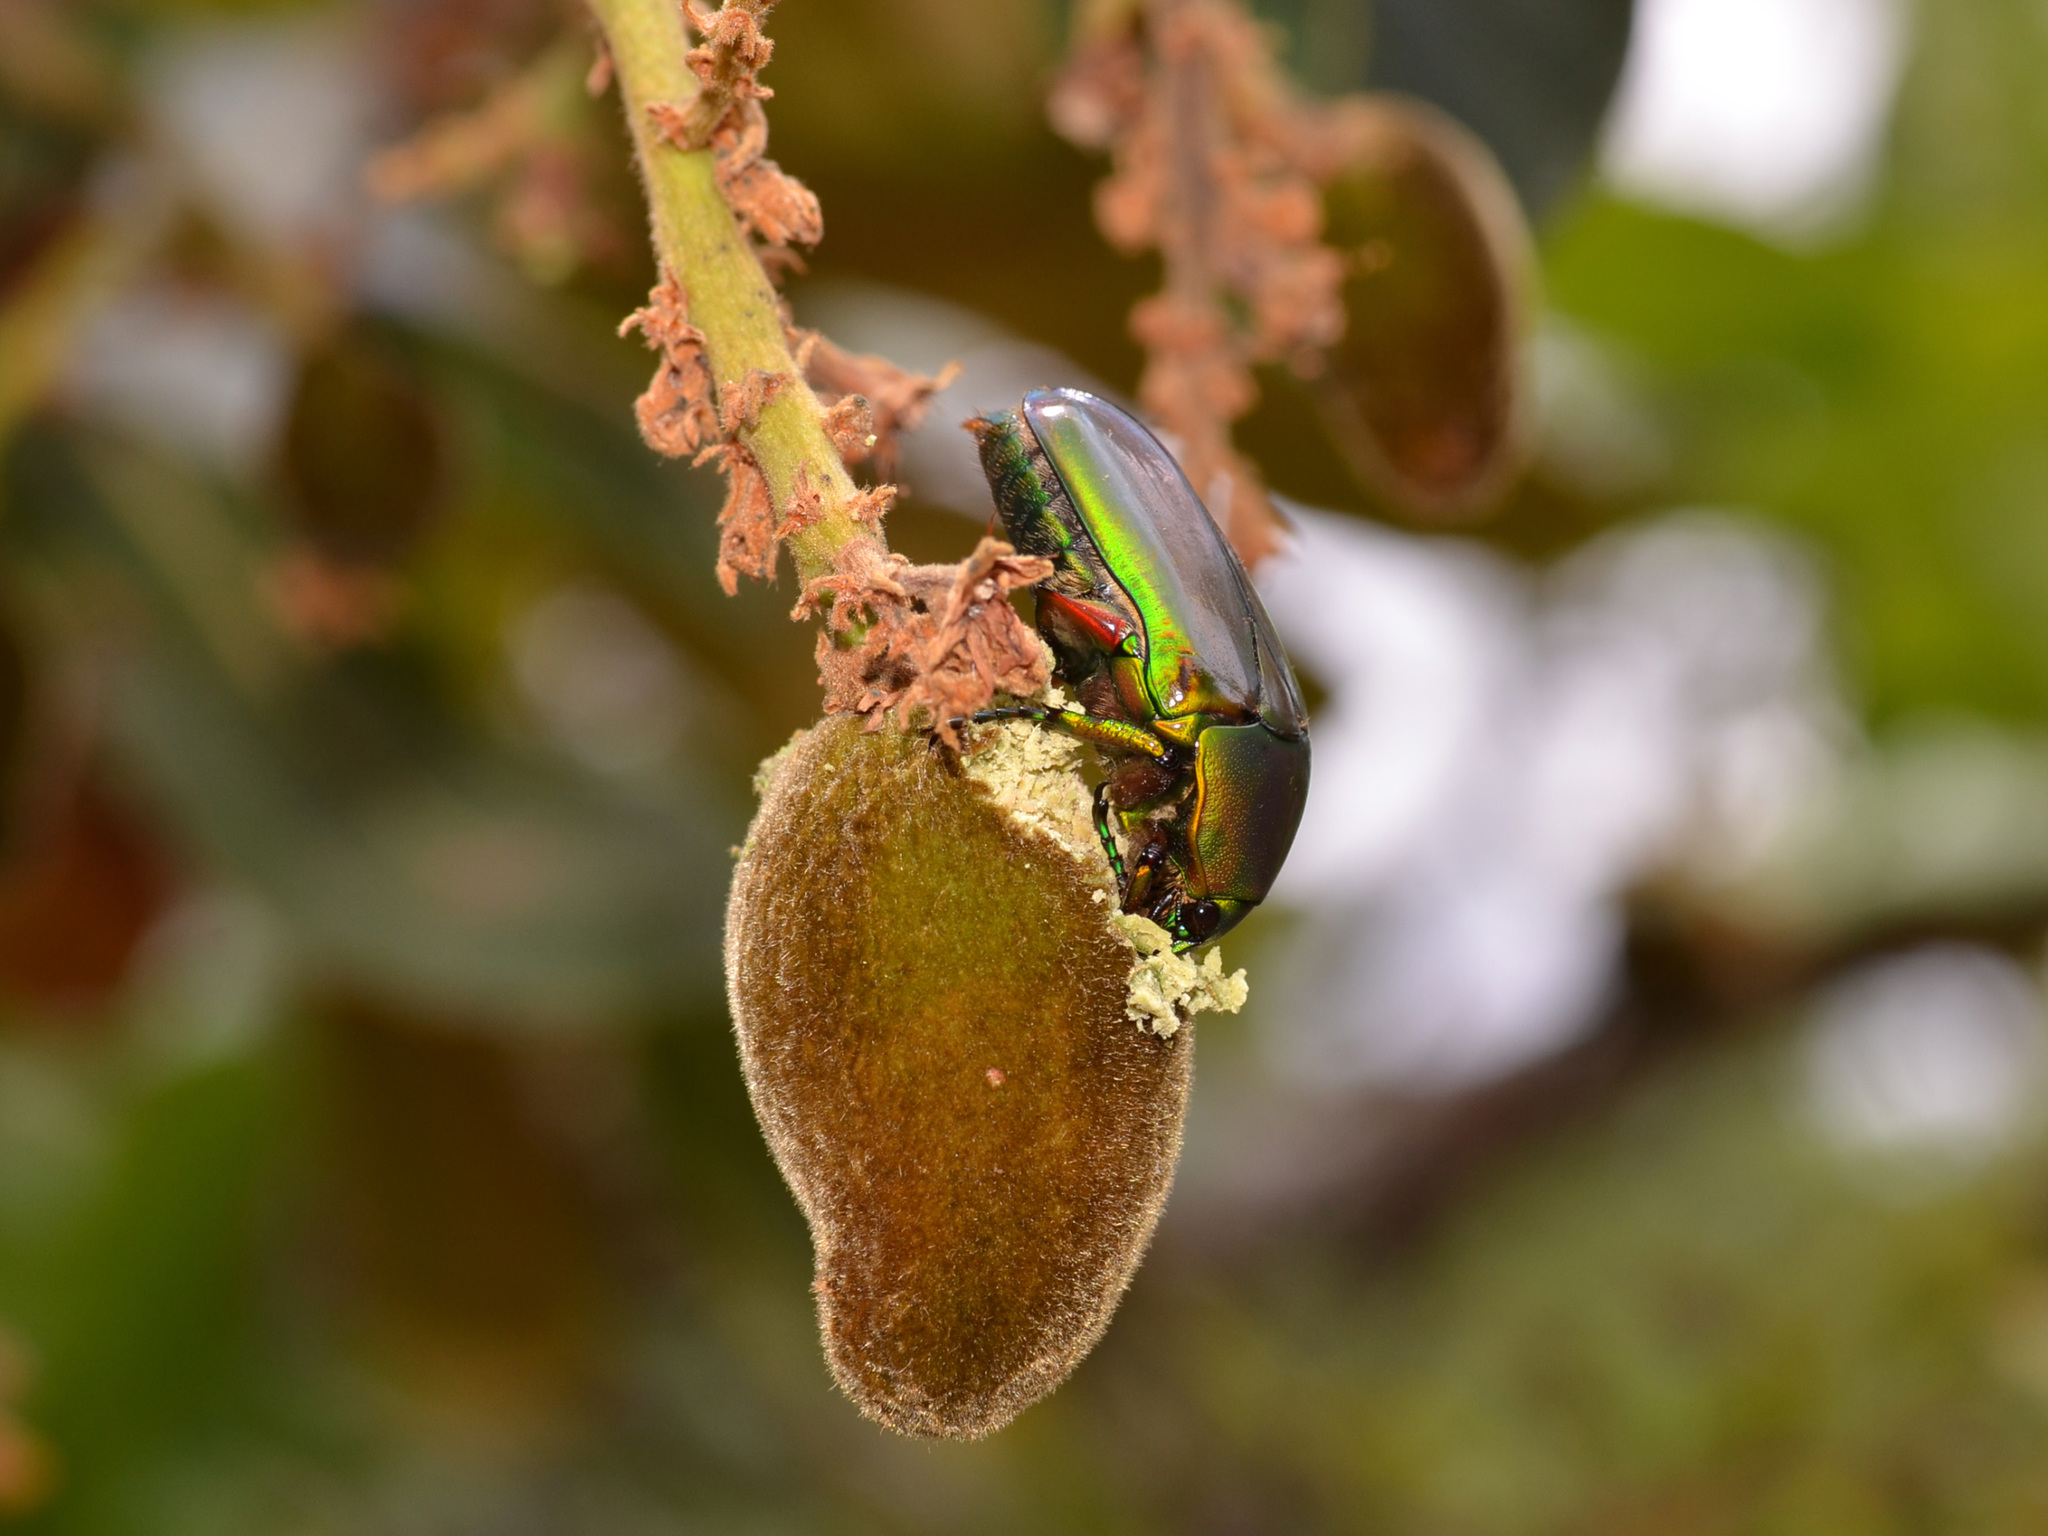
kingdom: Animalia
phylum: Arthropoda
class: Insecta
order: Coleoptera
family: Scarabaeidae
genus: Caelorrhina
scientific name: Caelorrhina barthi
